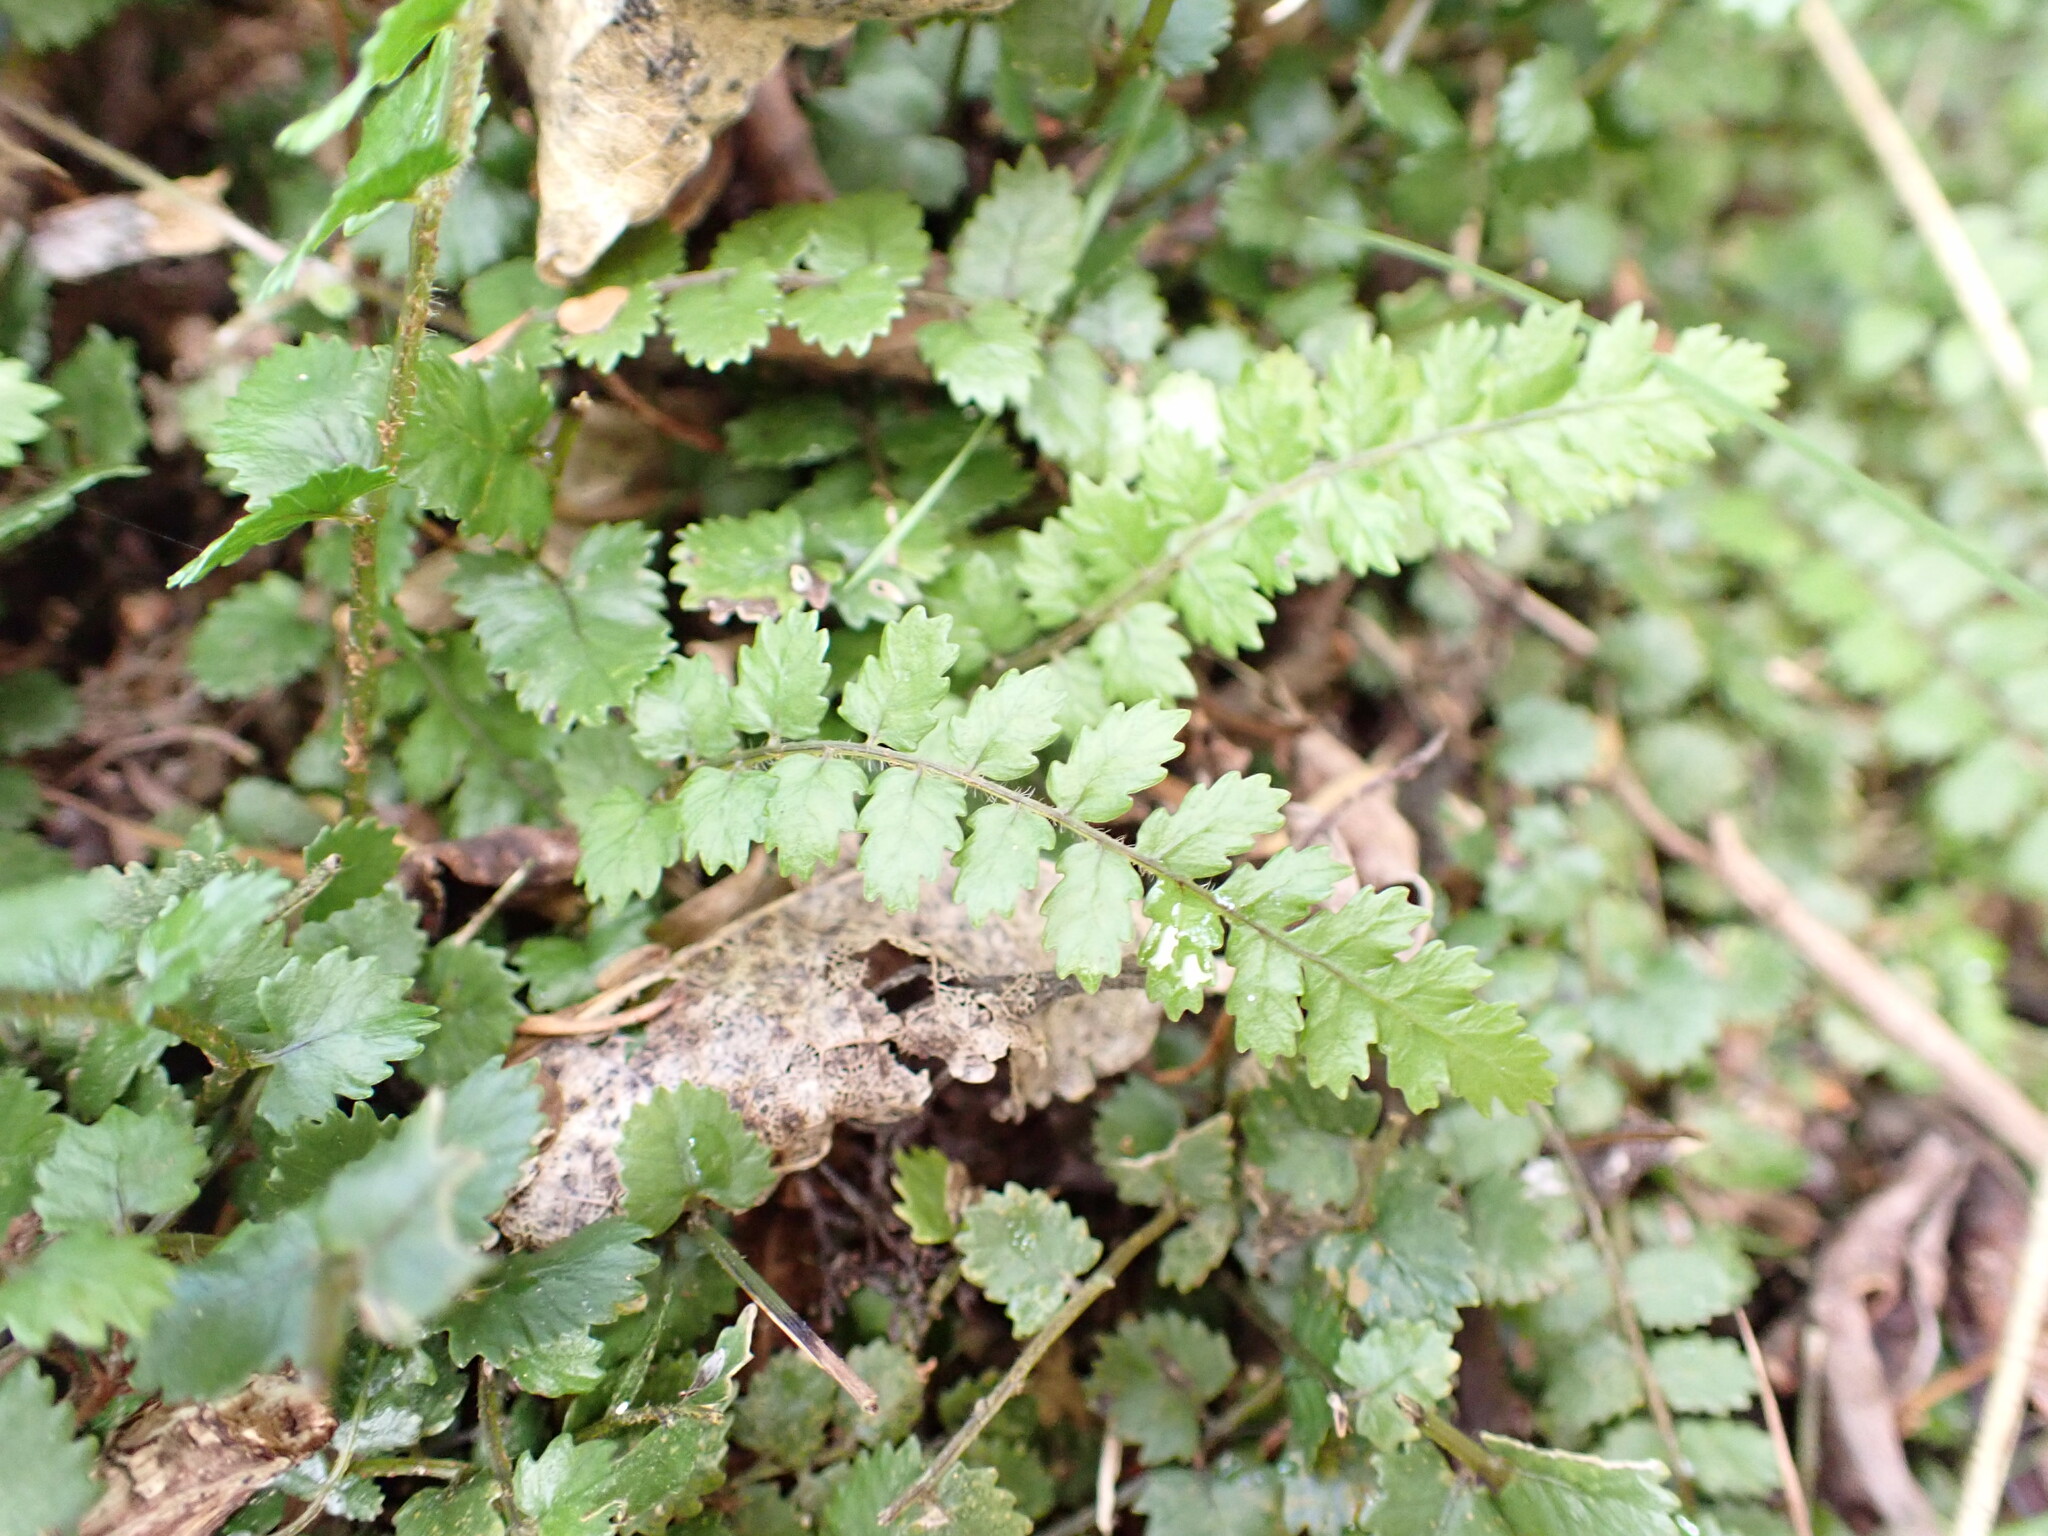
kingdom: Plantae
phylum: Tracheophyta
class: Polypodiopsida
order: Polypodiales
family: Blechnaceae
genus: Icarus
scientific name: Icarus filiformis
